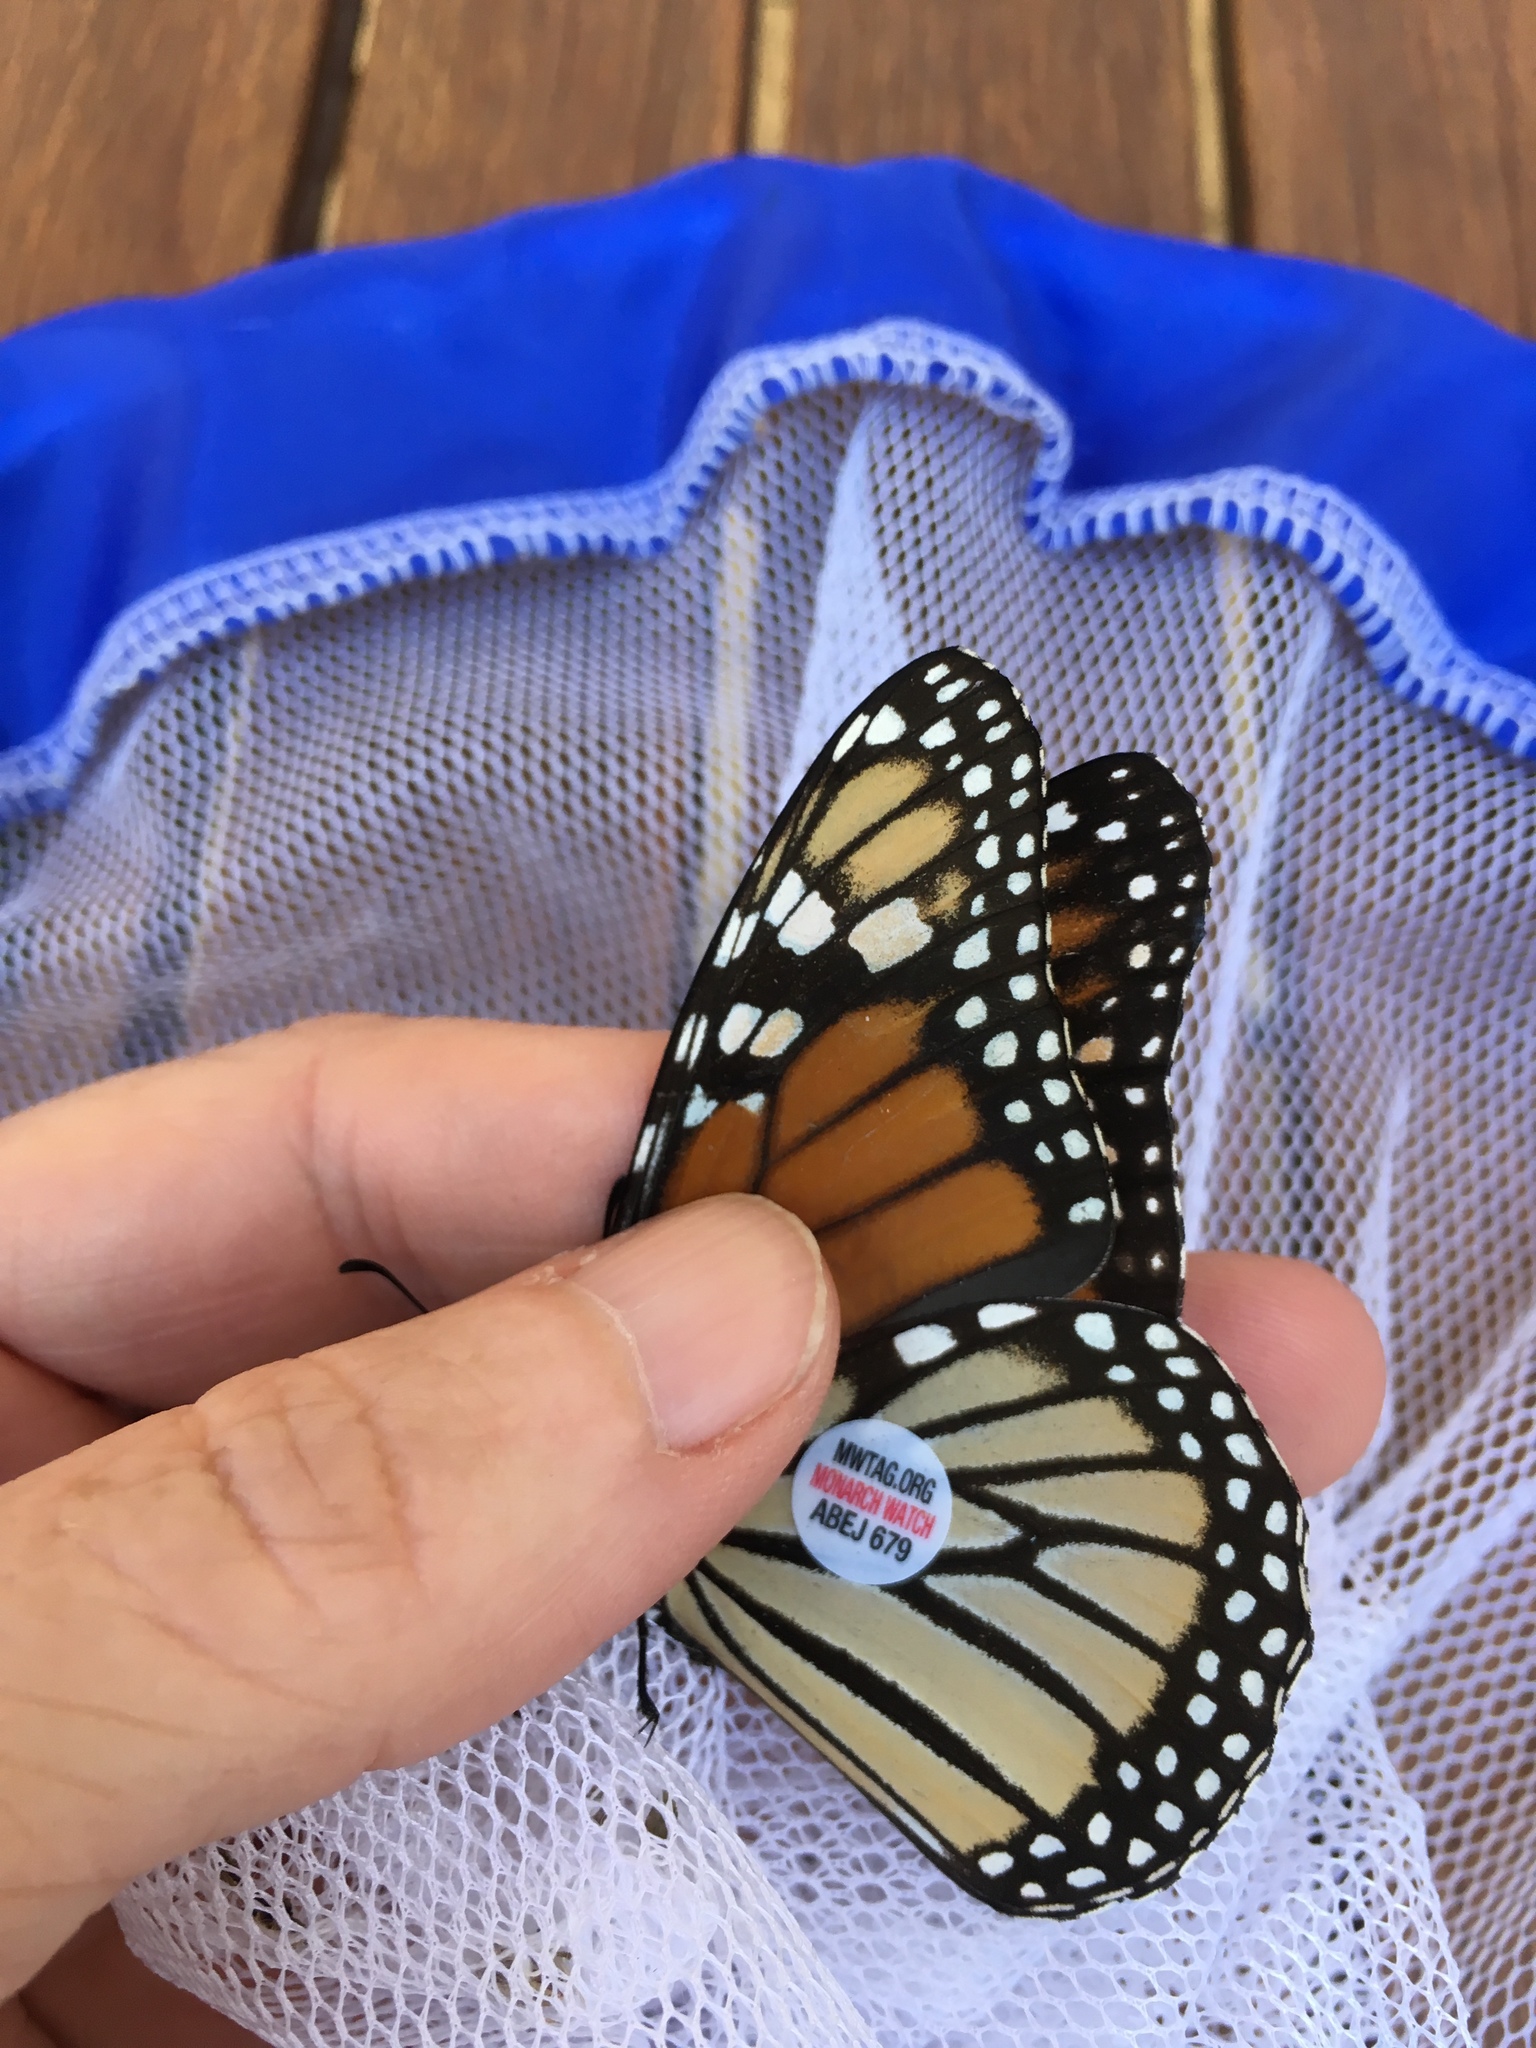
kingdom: Animalia
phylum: Arthropoda
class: Insecta
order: Lepidoptera
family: Nymphalidae
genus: Danaus
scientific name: Danaus plexippus
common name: Monarch
